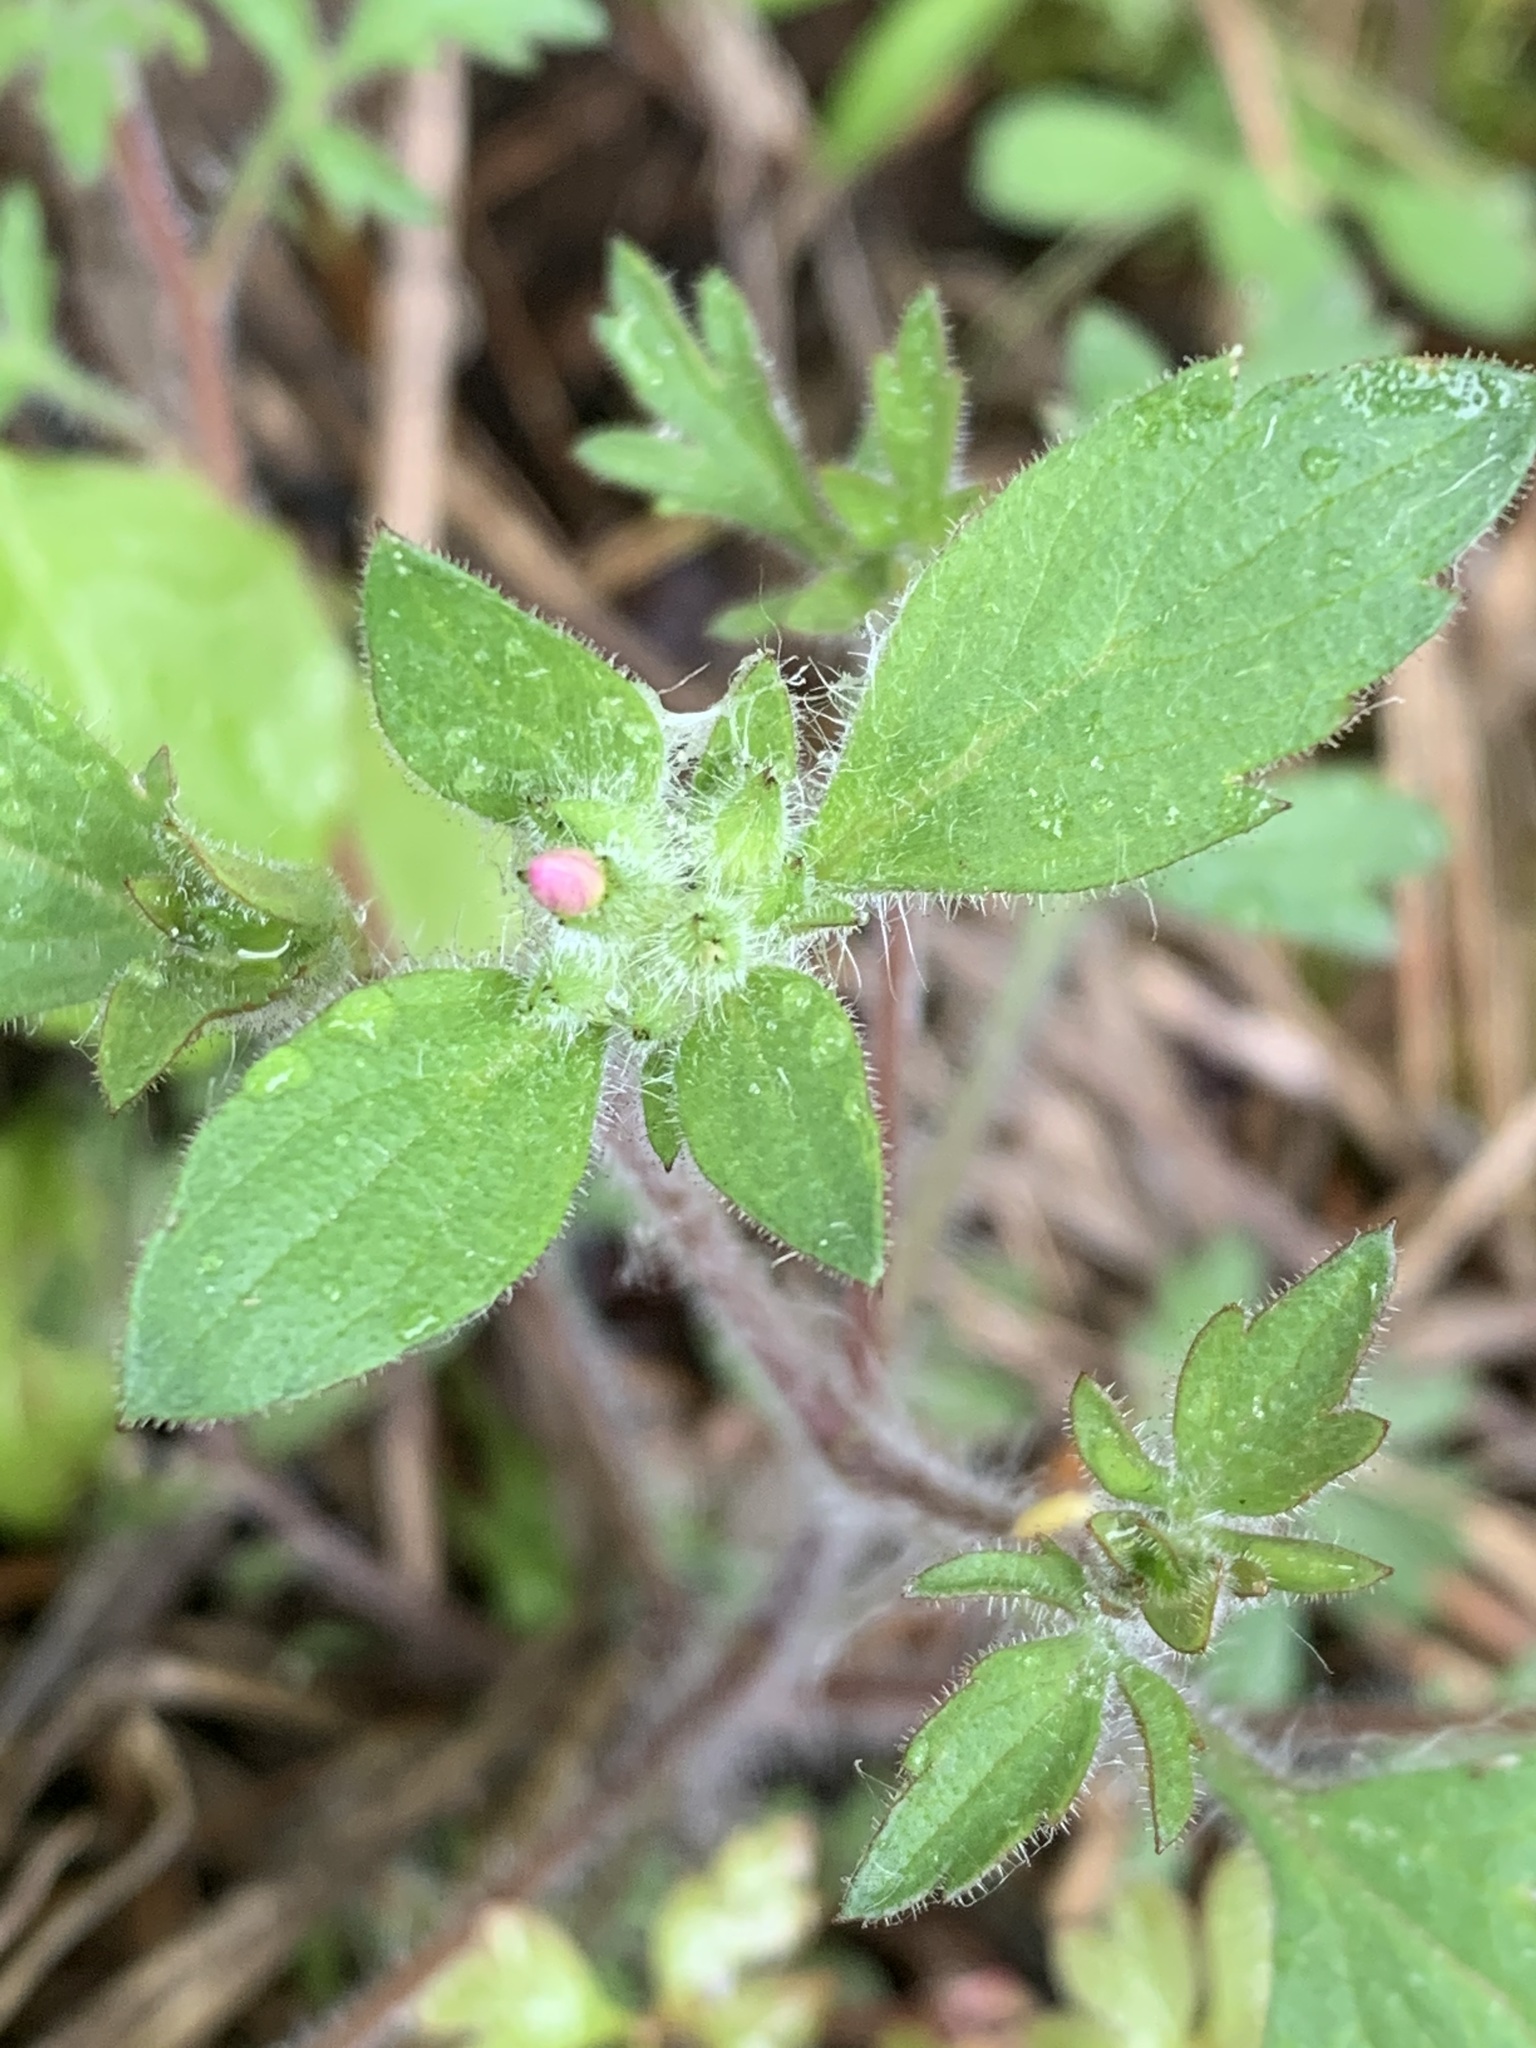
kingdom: Plantae
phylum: Tracheophyta
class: Magnoliopsida
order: Ericales
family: Polemoniaceae
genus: Collomia
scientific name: Collomia heterophylla
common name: Variable-leaved collomia
